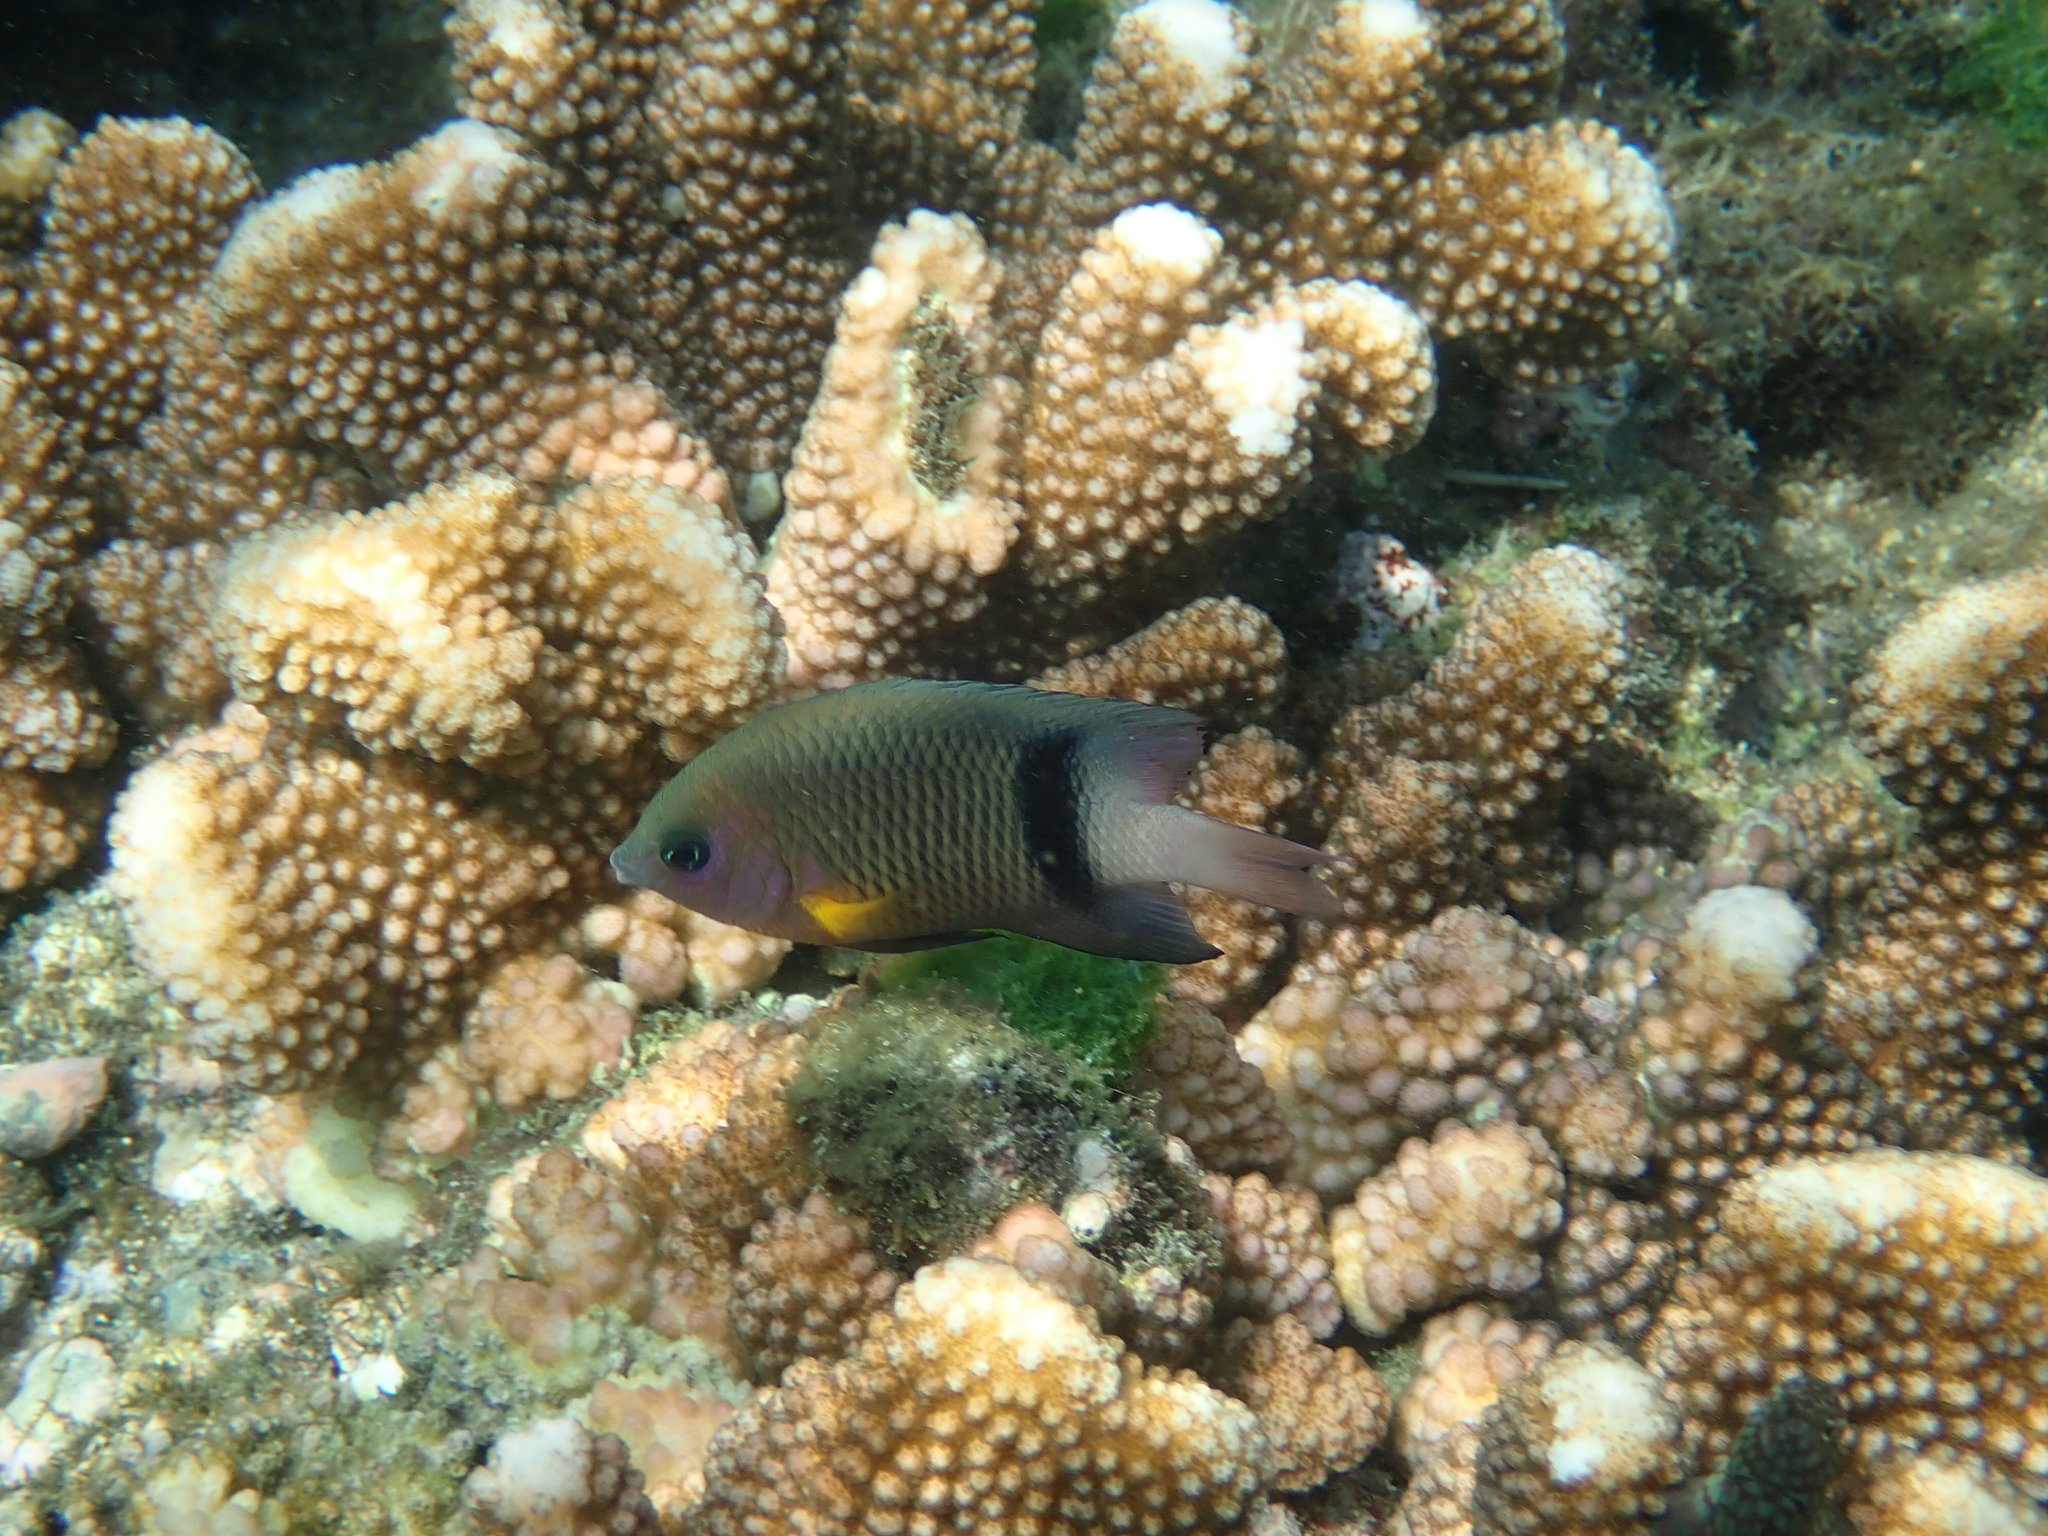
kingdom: Animalia
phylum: Chordata
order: Perciformes
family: Pomacentridae
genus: Plectroglyphidodon
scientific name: Plectroglyphidodon dickii
